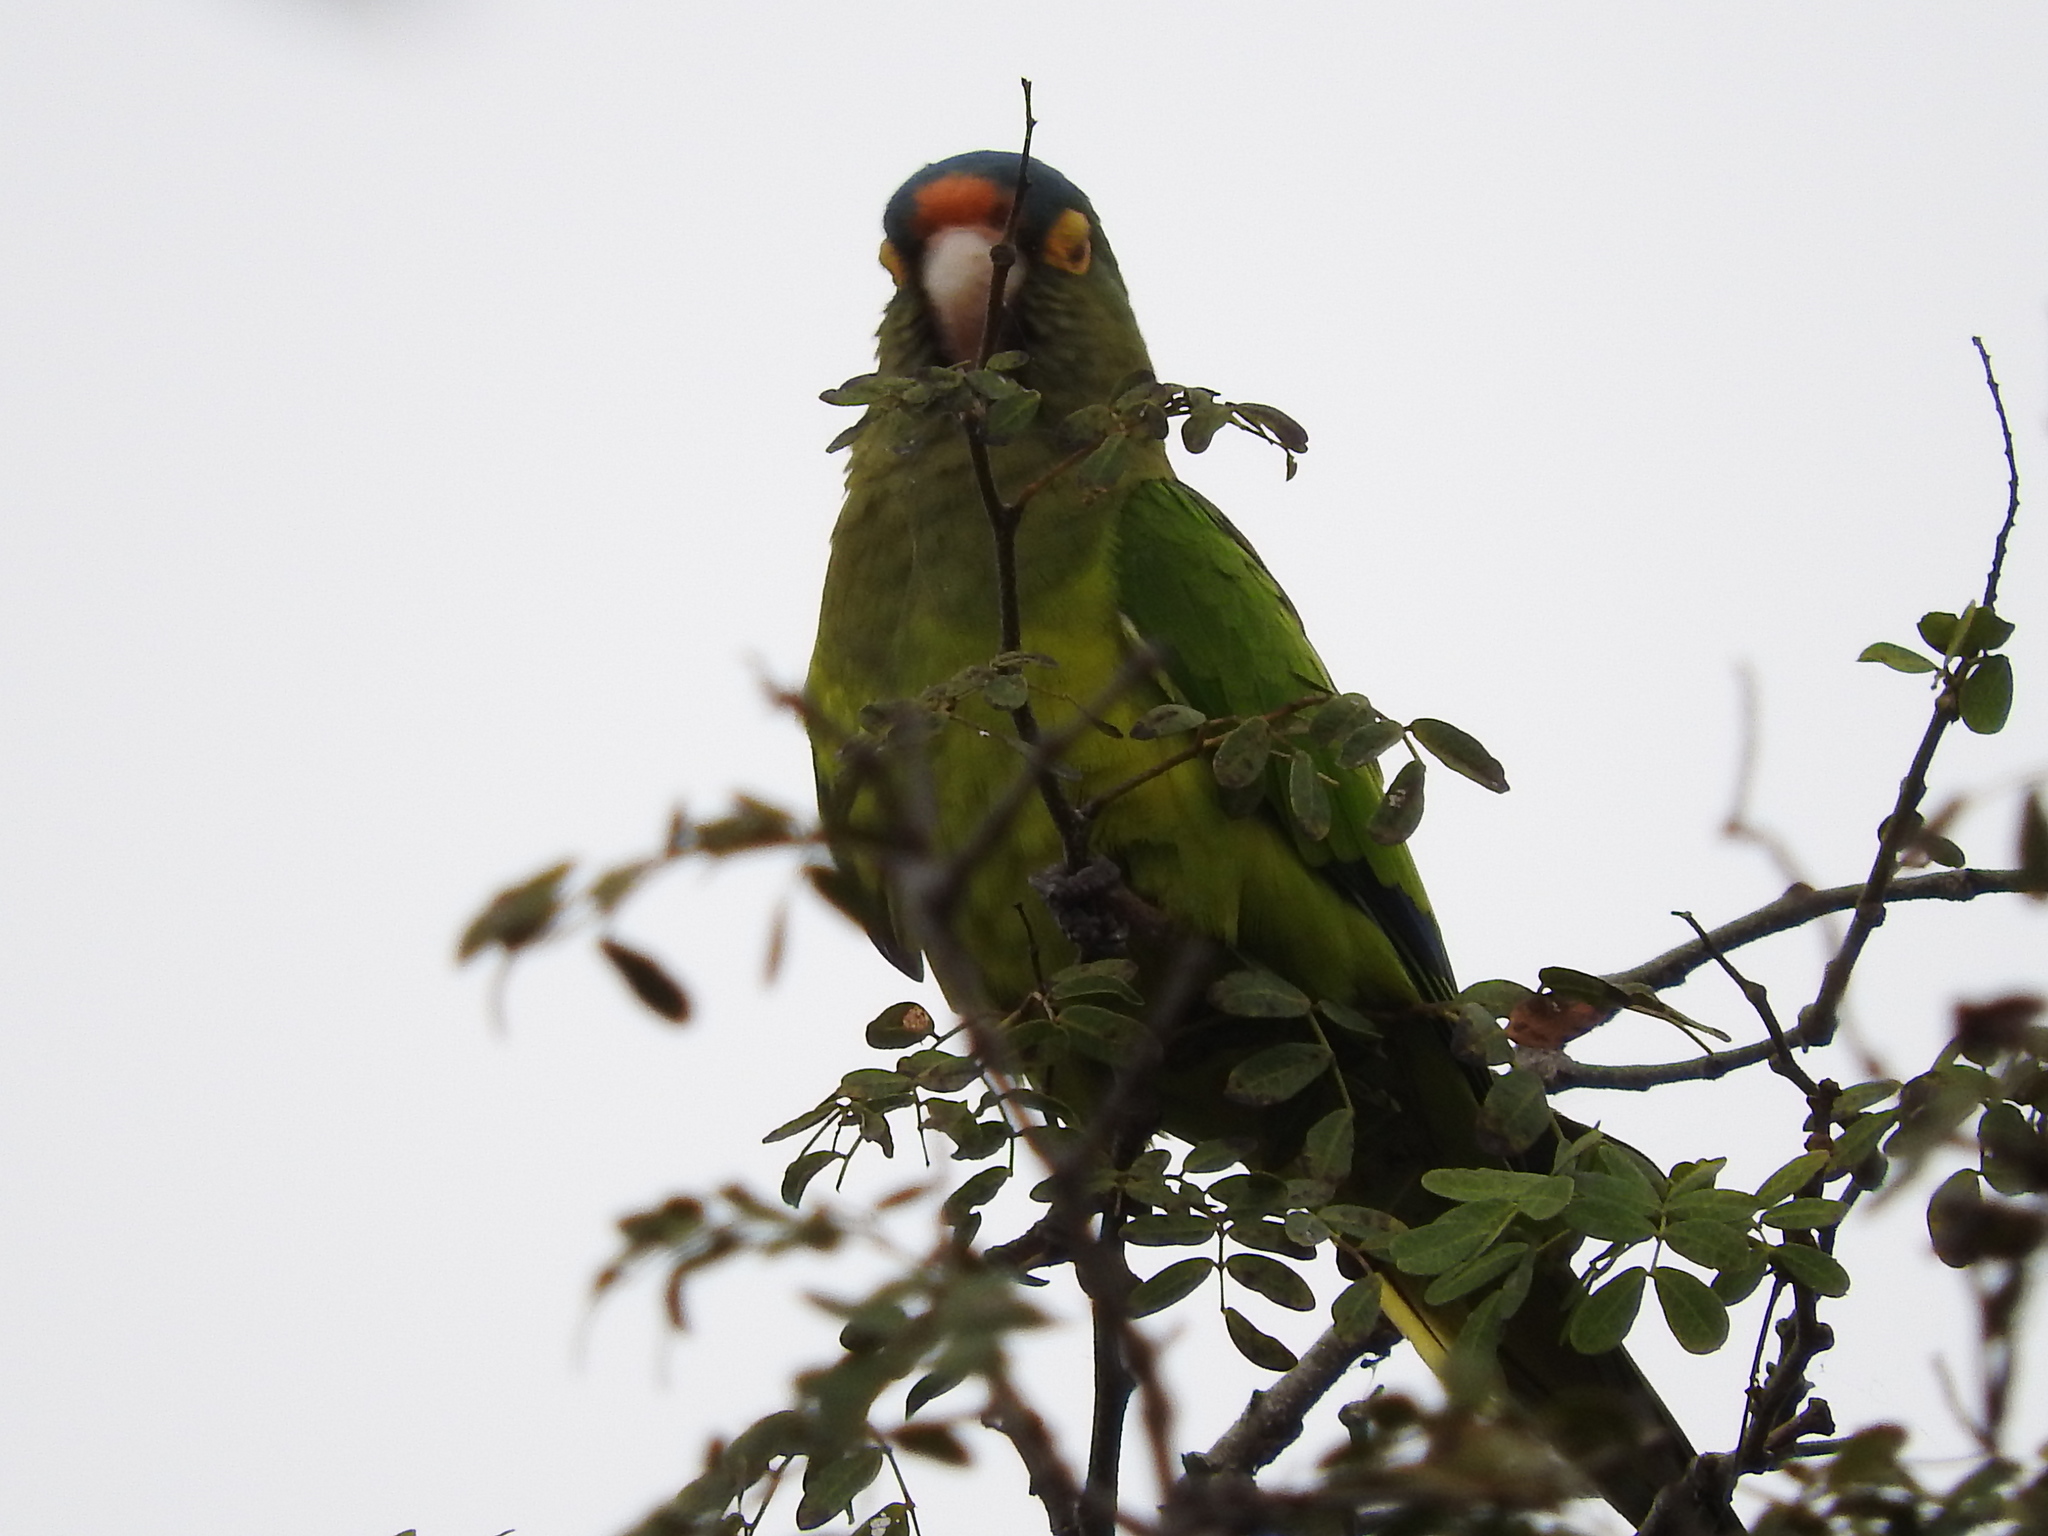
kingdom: Animalia
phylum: Chordata
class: Aves
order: Psittaciformes
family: Psittacidae
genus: Aratinga
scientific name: Aratinga canicularis
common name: Orange-fronted parakeet
